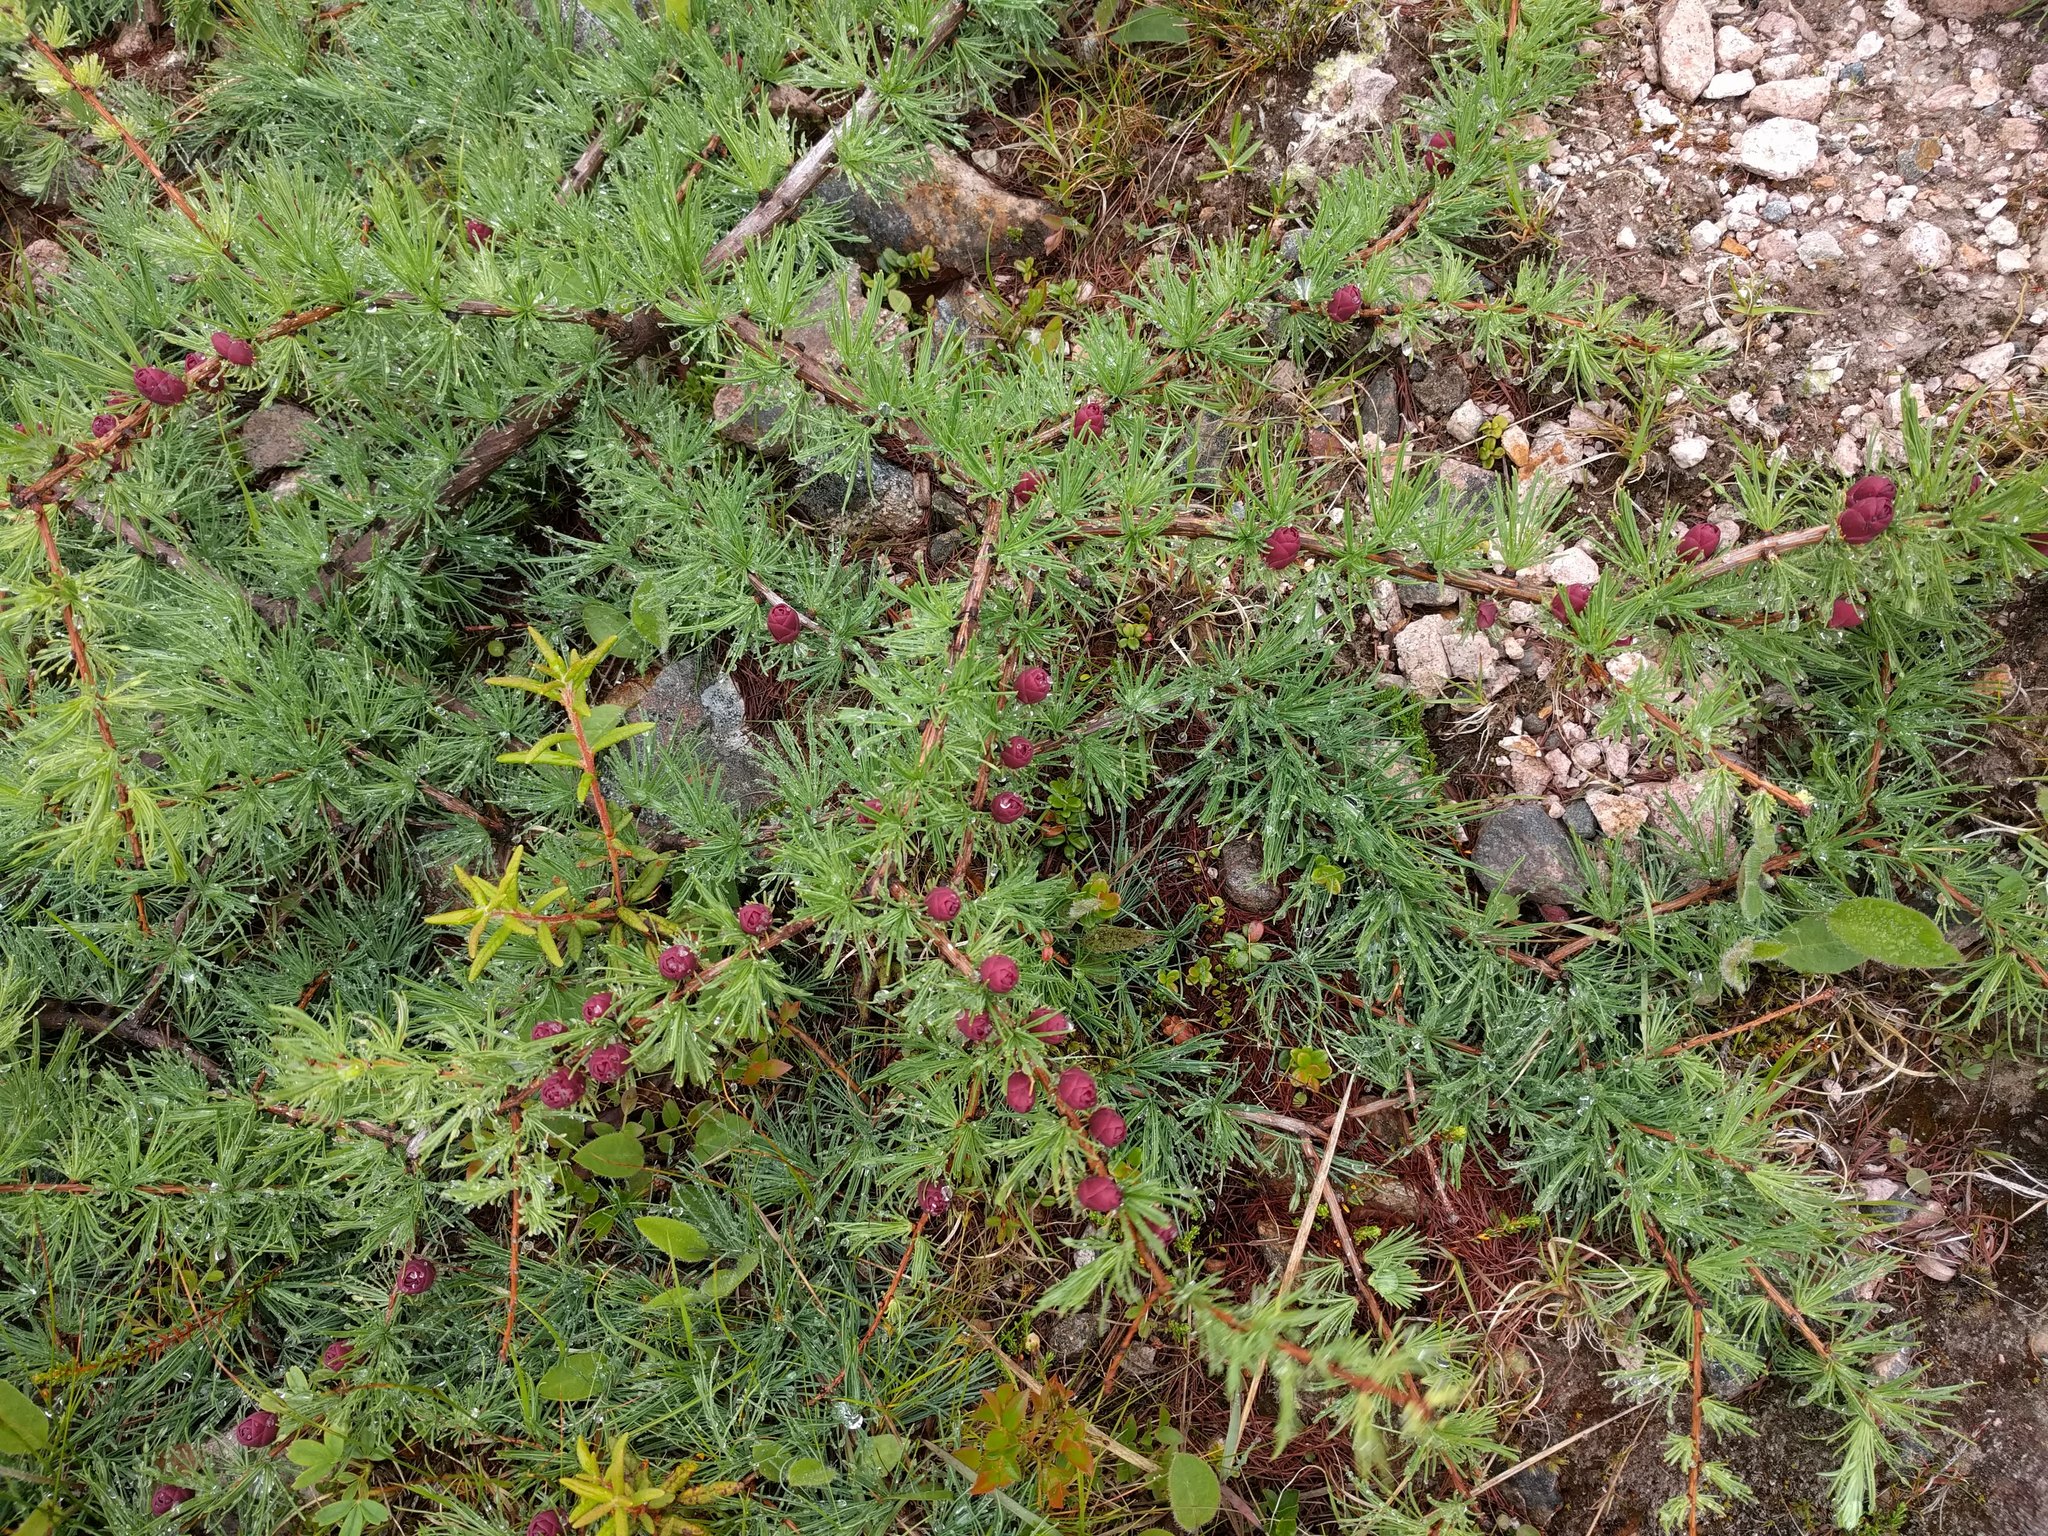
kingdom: Plantae
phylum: Tracheophyta
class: Pinopsida
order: Pinales
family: Pinaceae
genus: Larix
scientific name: Larix laricina
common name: American larch
